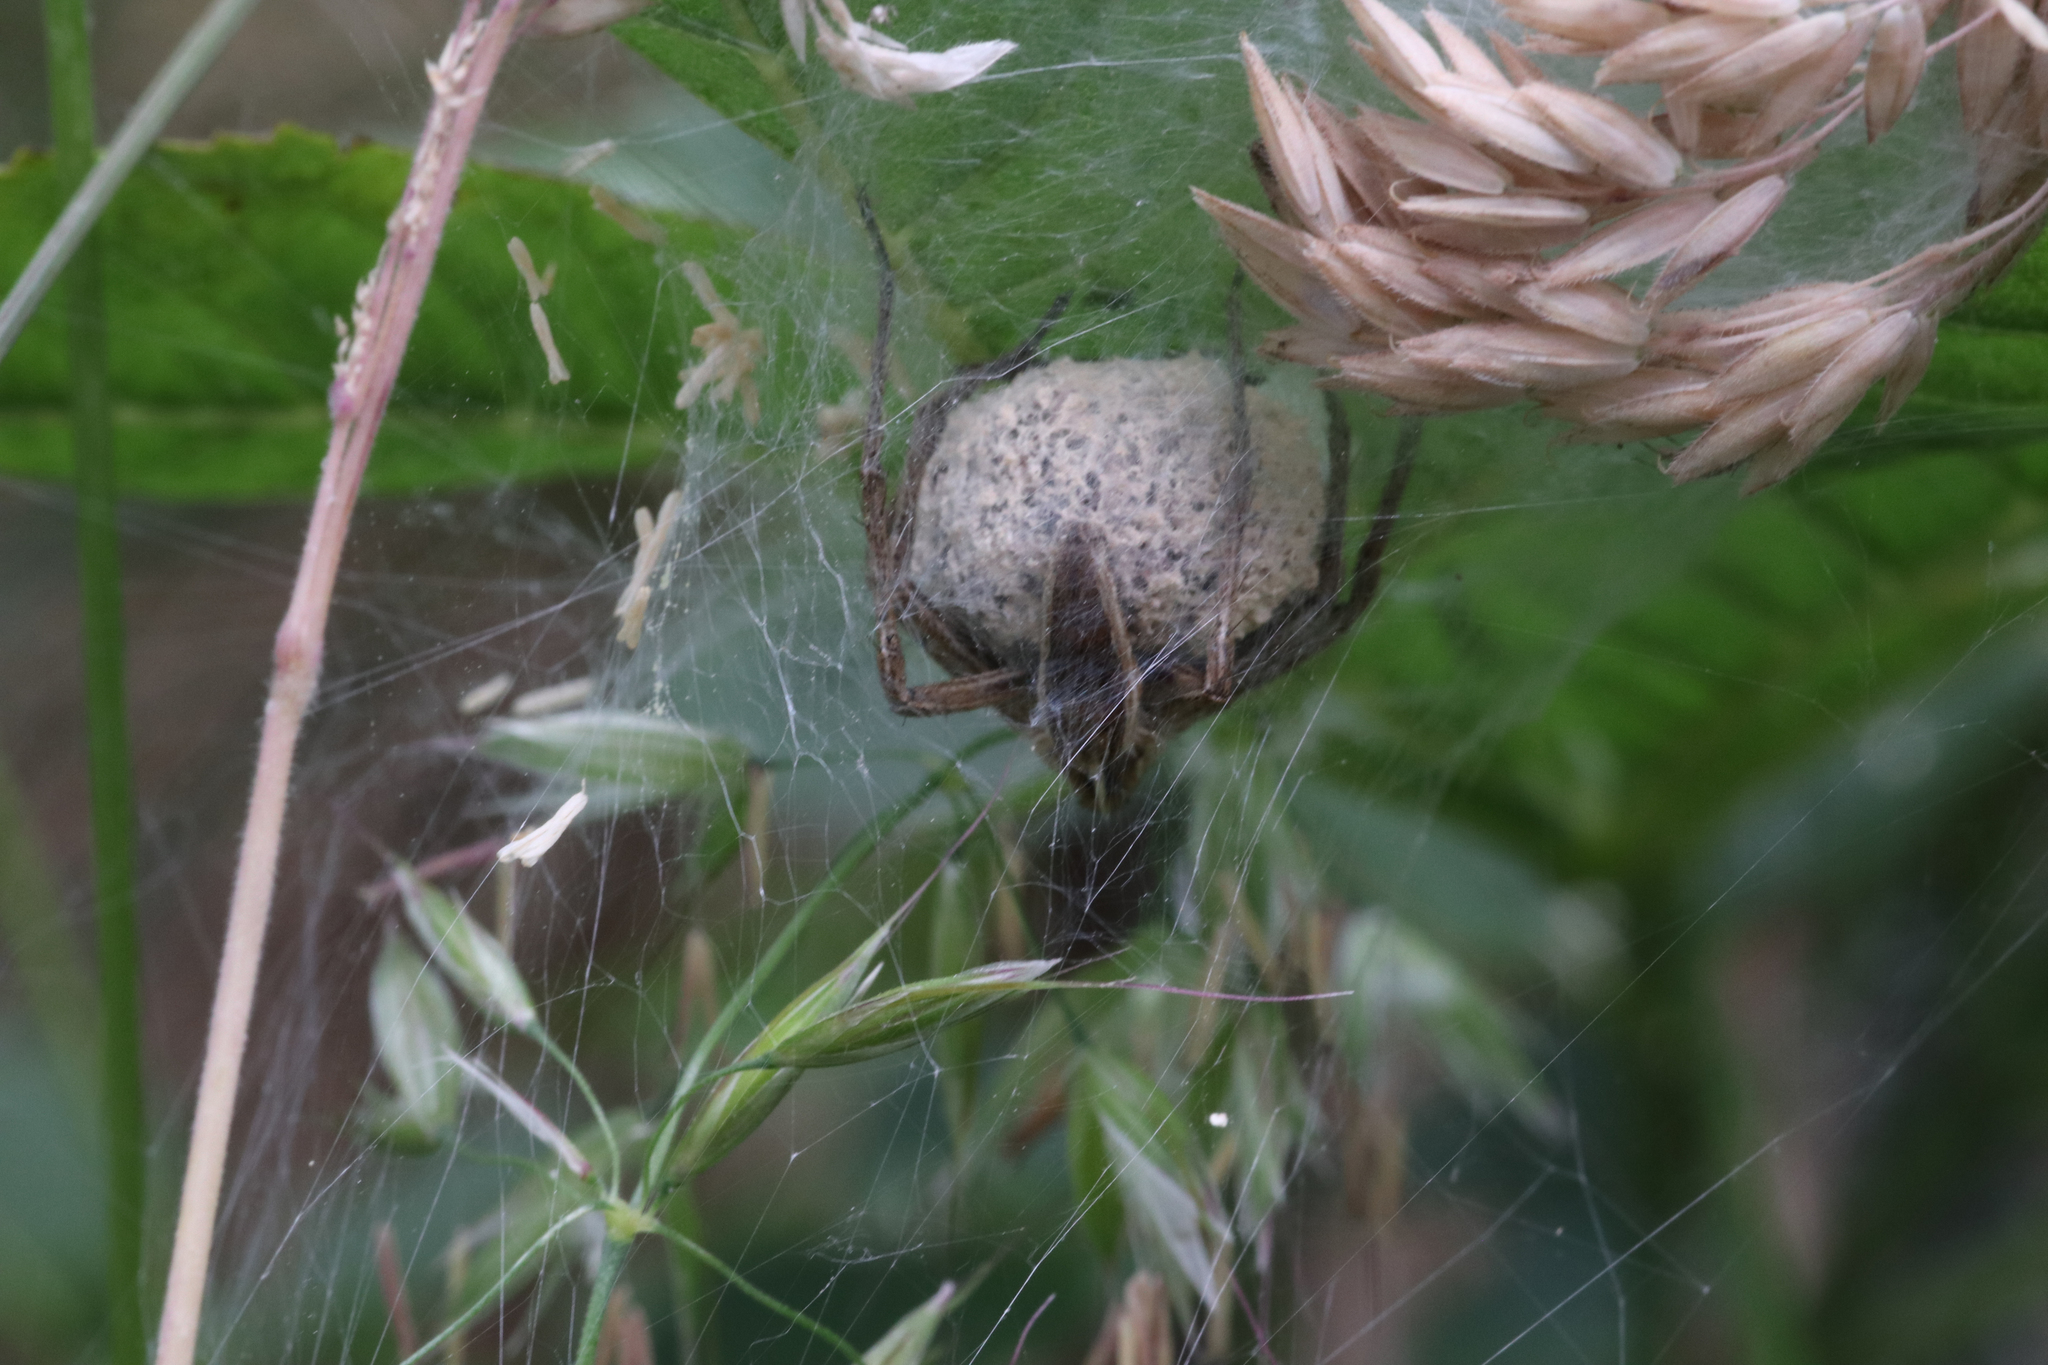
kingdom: Animalia
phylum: Arthropoda
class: Arachnida
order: Araneae
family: Pisauridae
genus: Pisaura
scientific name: Pisaura mirabilis
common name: Tent spider
